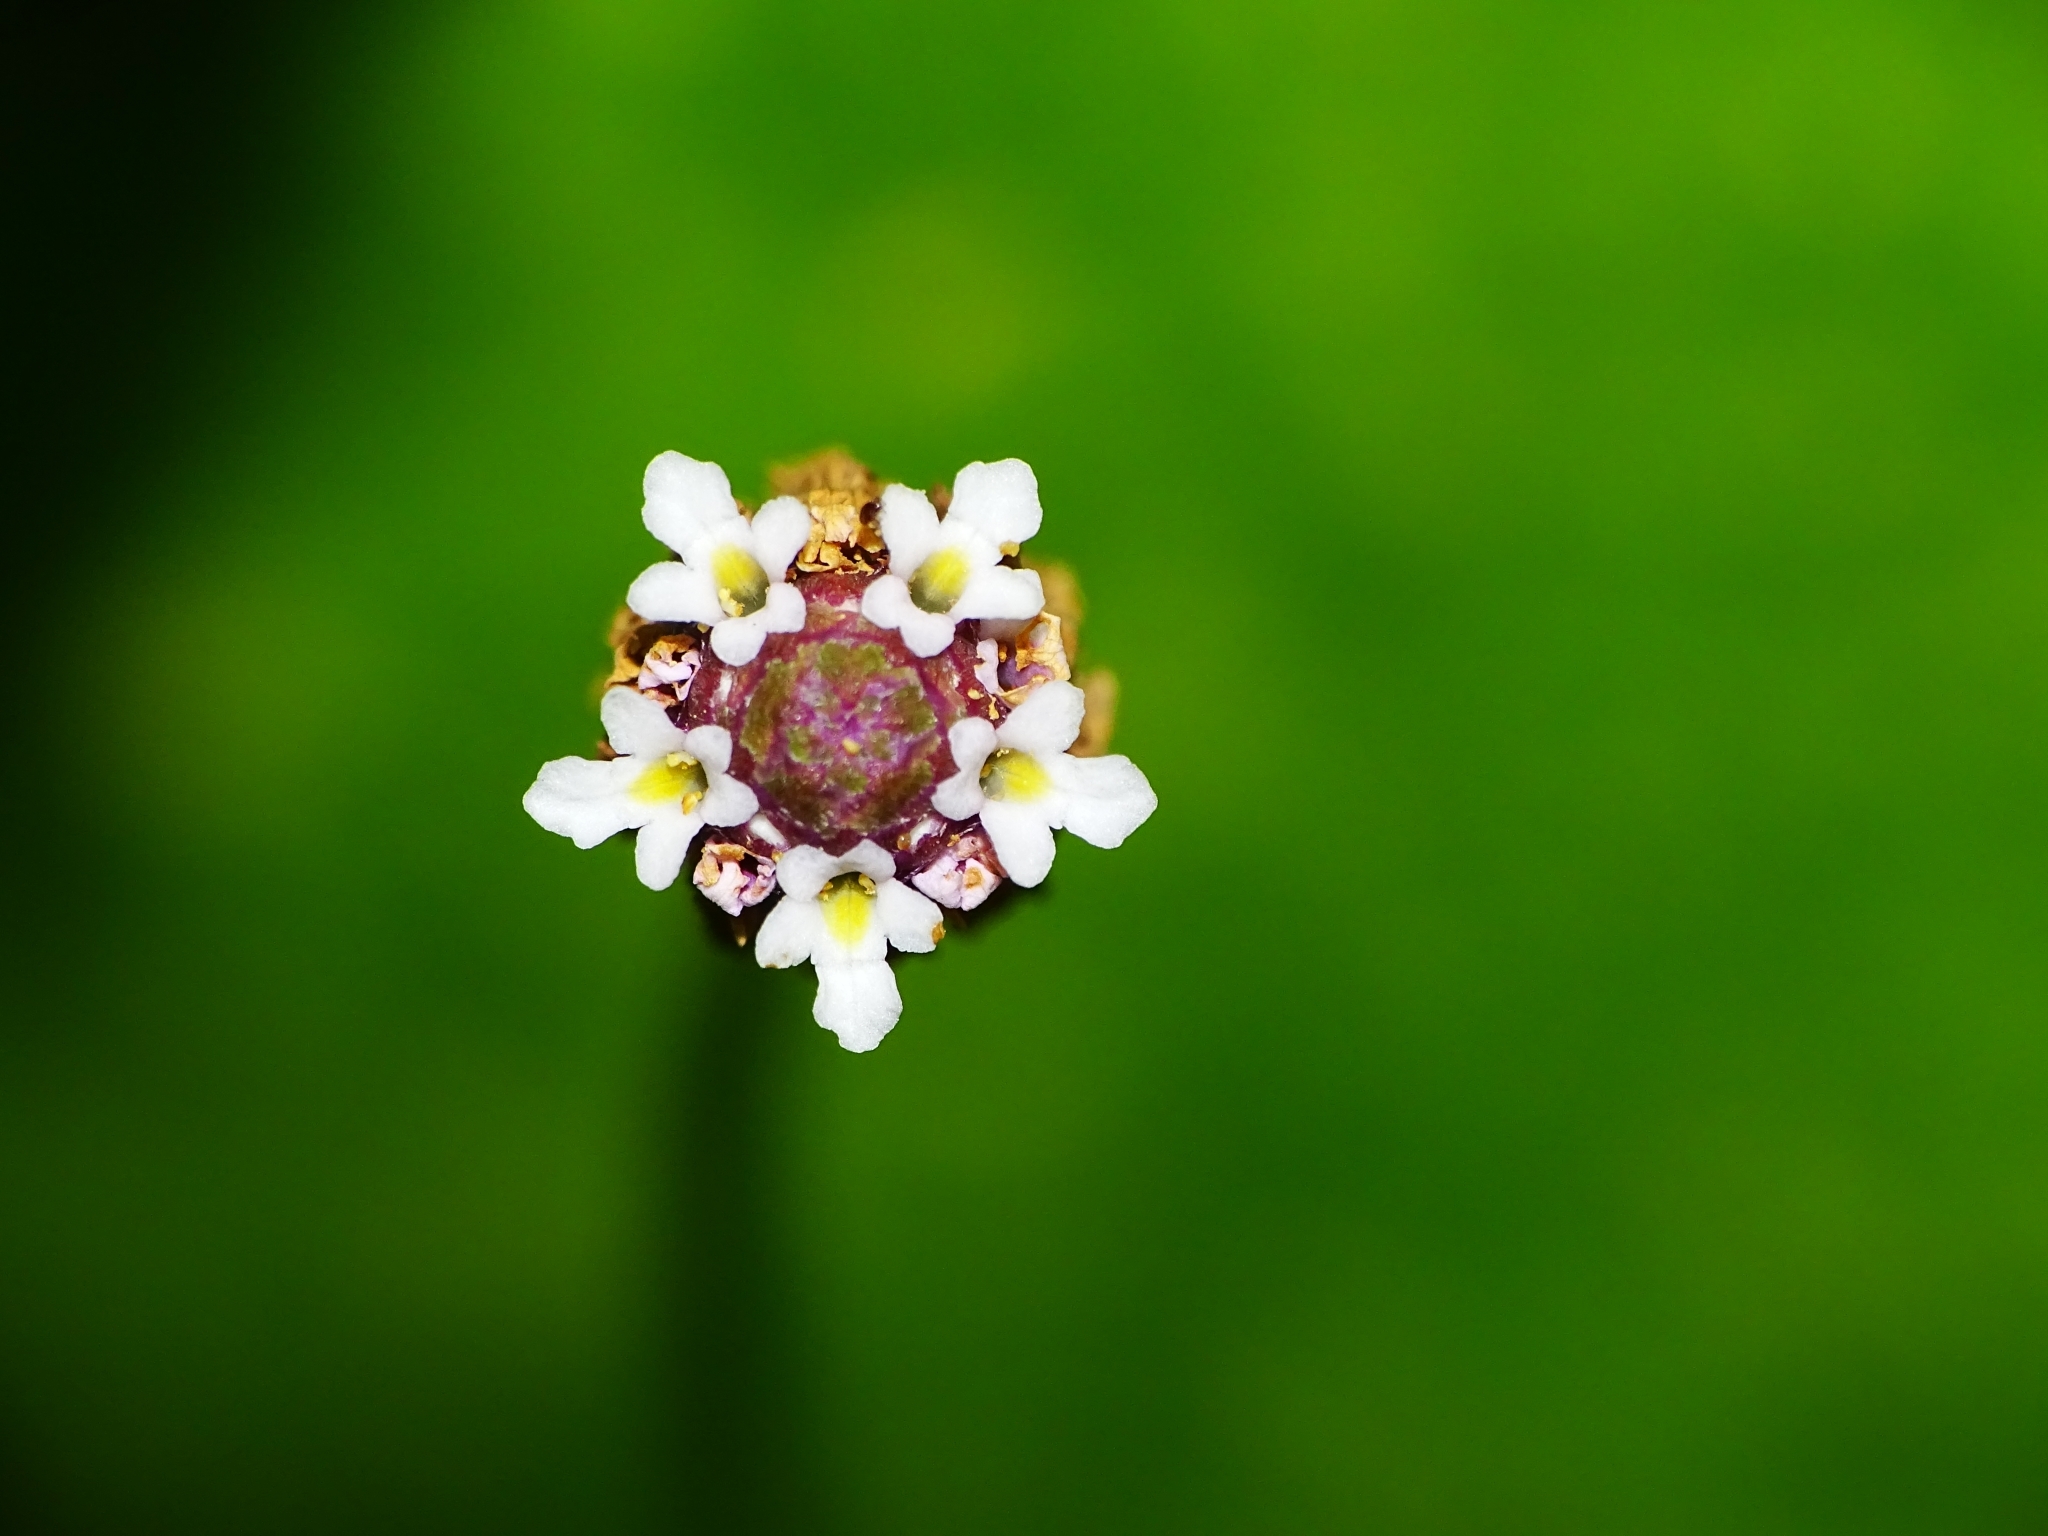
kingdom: Plantae
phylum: Tracheophyta
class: Magnoliopsida
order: Lamiales
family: Verbenaceae
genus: Phyla
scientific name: Phyla nodiflora
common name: Frogfruit
